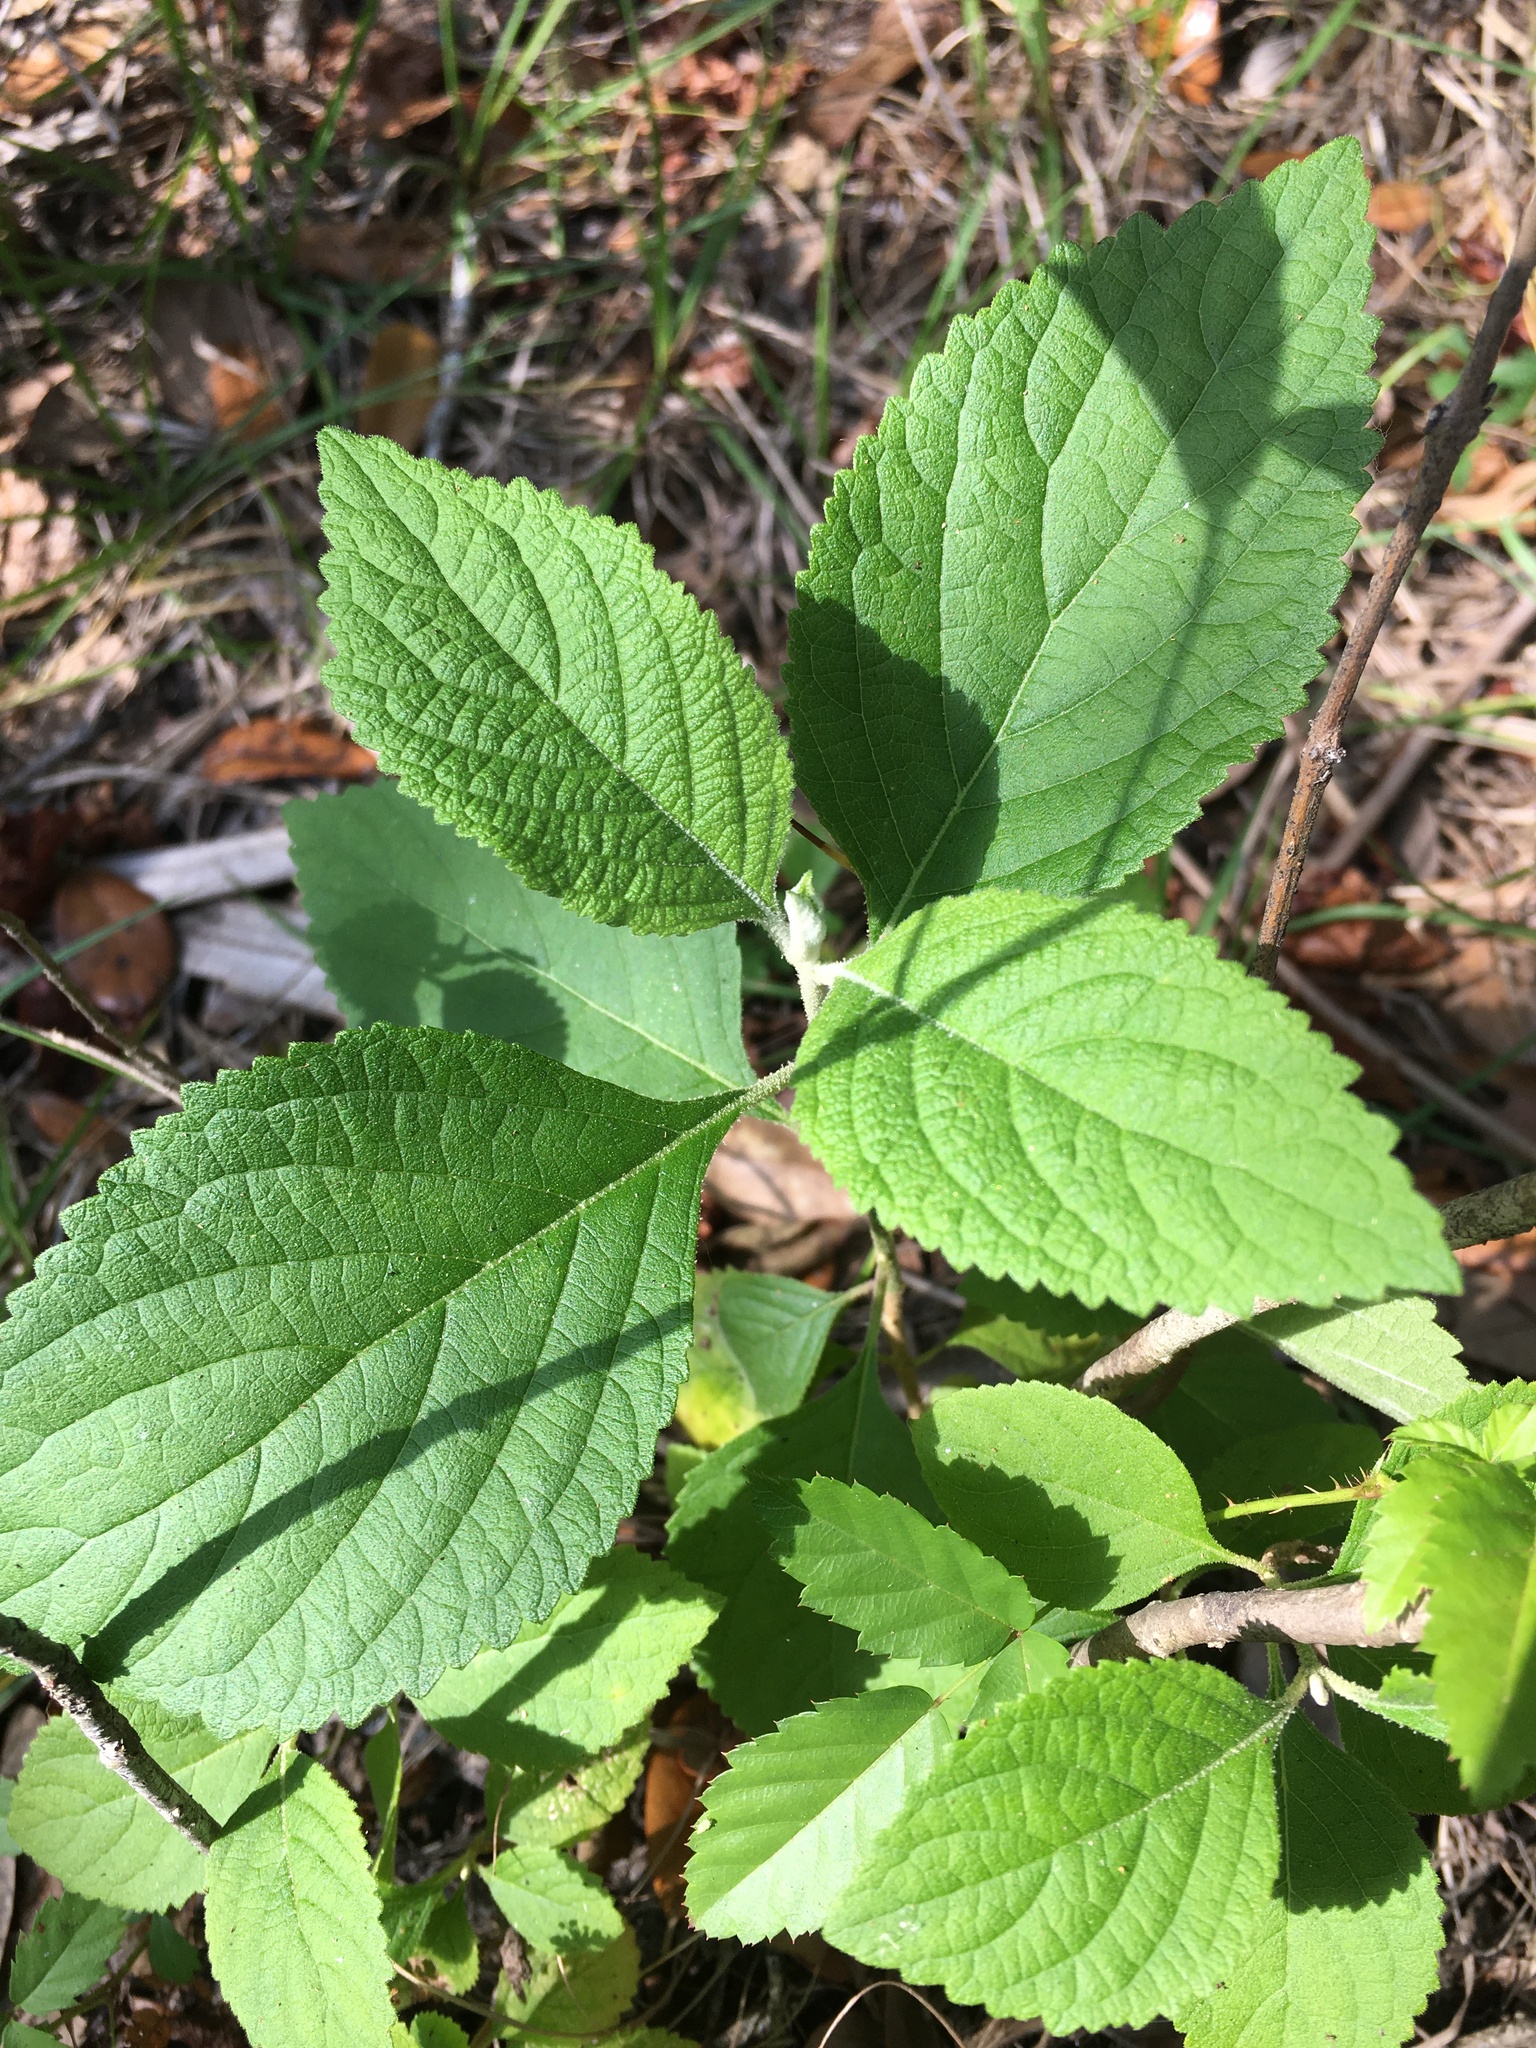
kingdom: Plantae
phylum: Tracheophyta
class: Magnoliopsida
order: Lamiales
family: Lamiaceae
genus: Callicarpa
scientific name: Callicarpa americana
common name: American beautyberry
